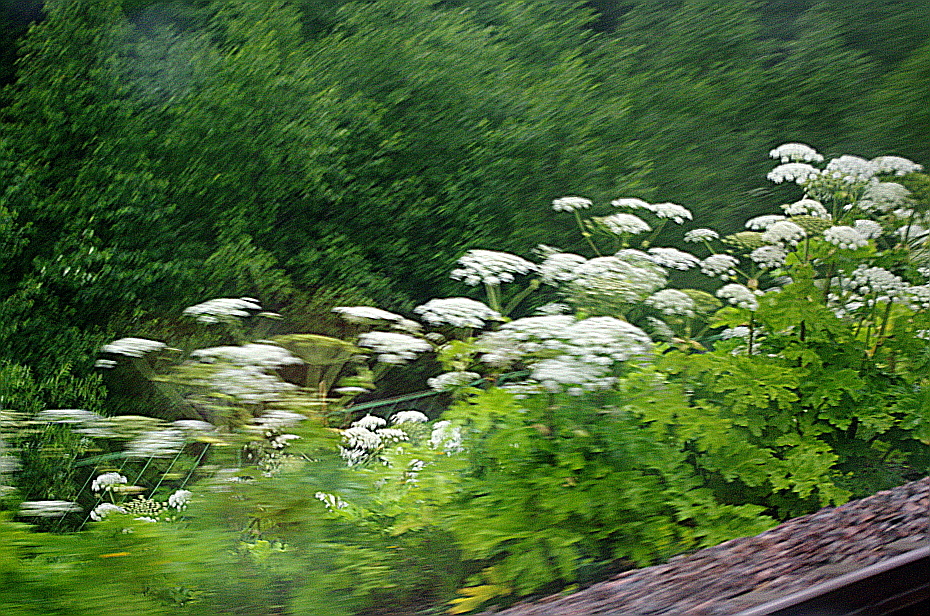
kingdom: Plantae
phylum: Tracheophyta
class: Magnoliopsida
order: Apiales
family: Apiaceae
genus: Heracleum
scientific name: Heracleum sosnowskyi
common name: Sosnowsky's hogweed
